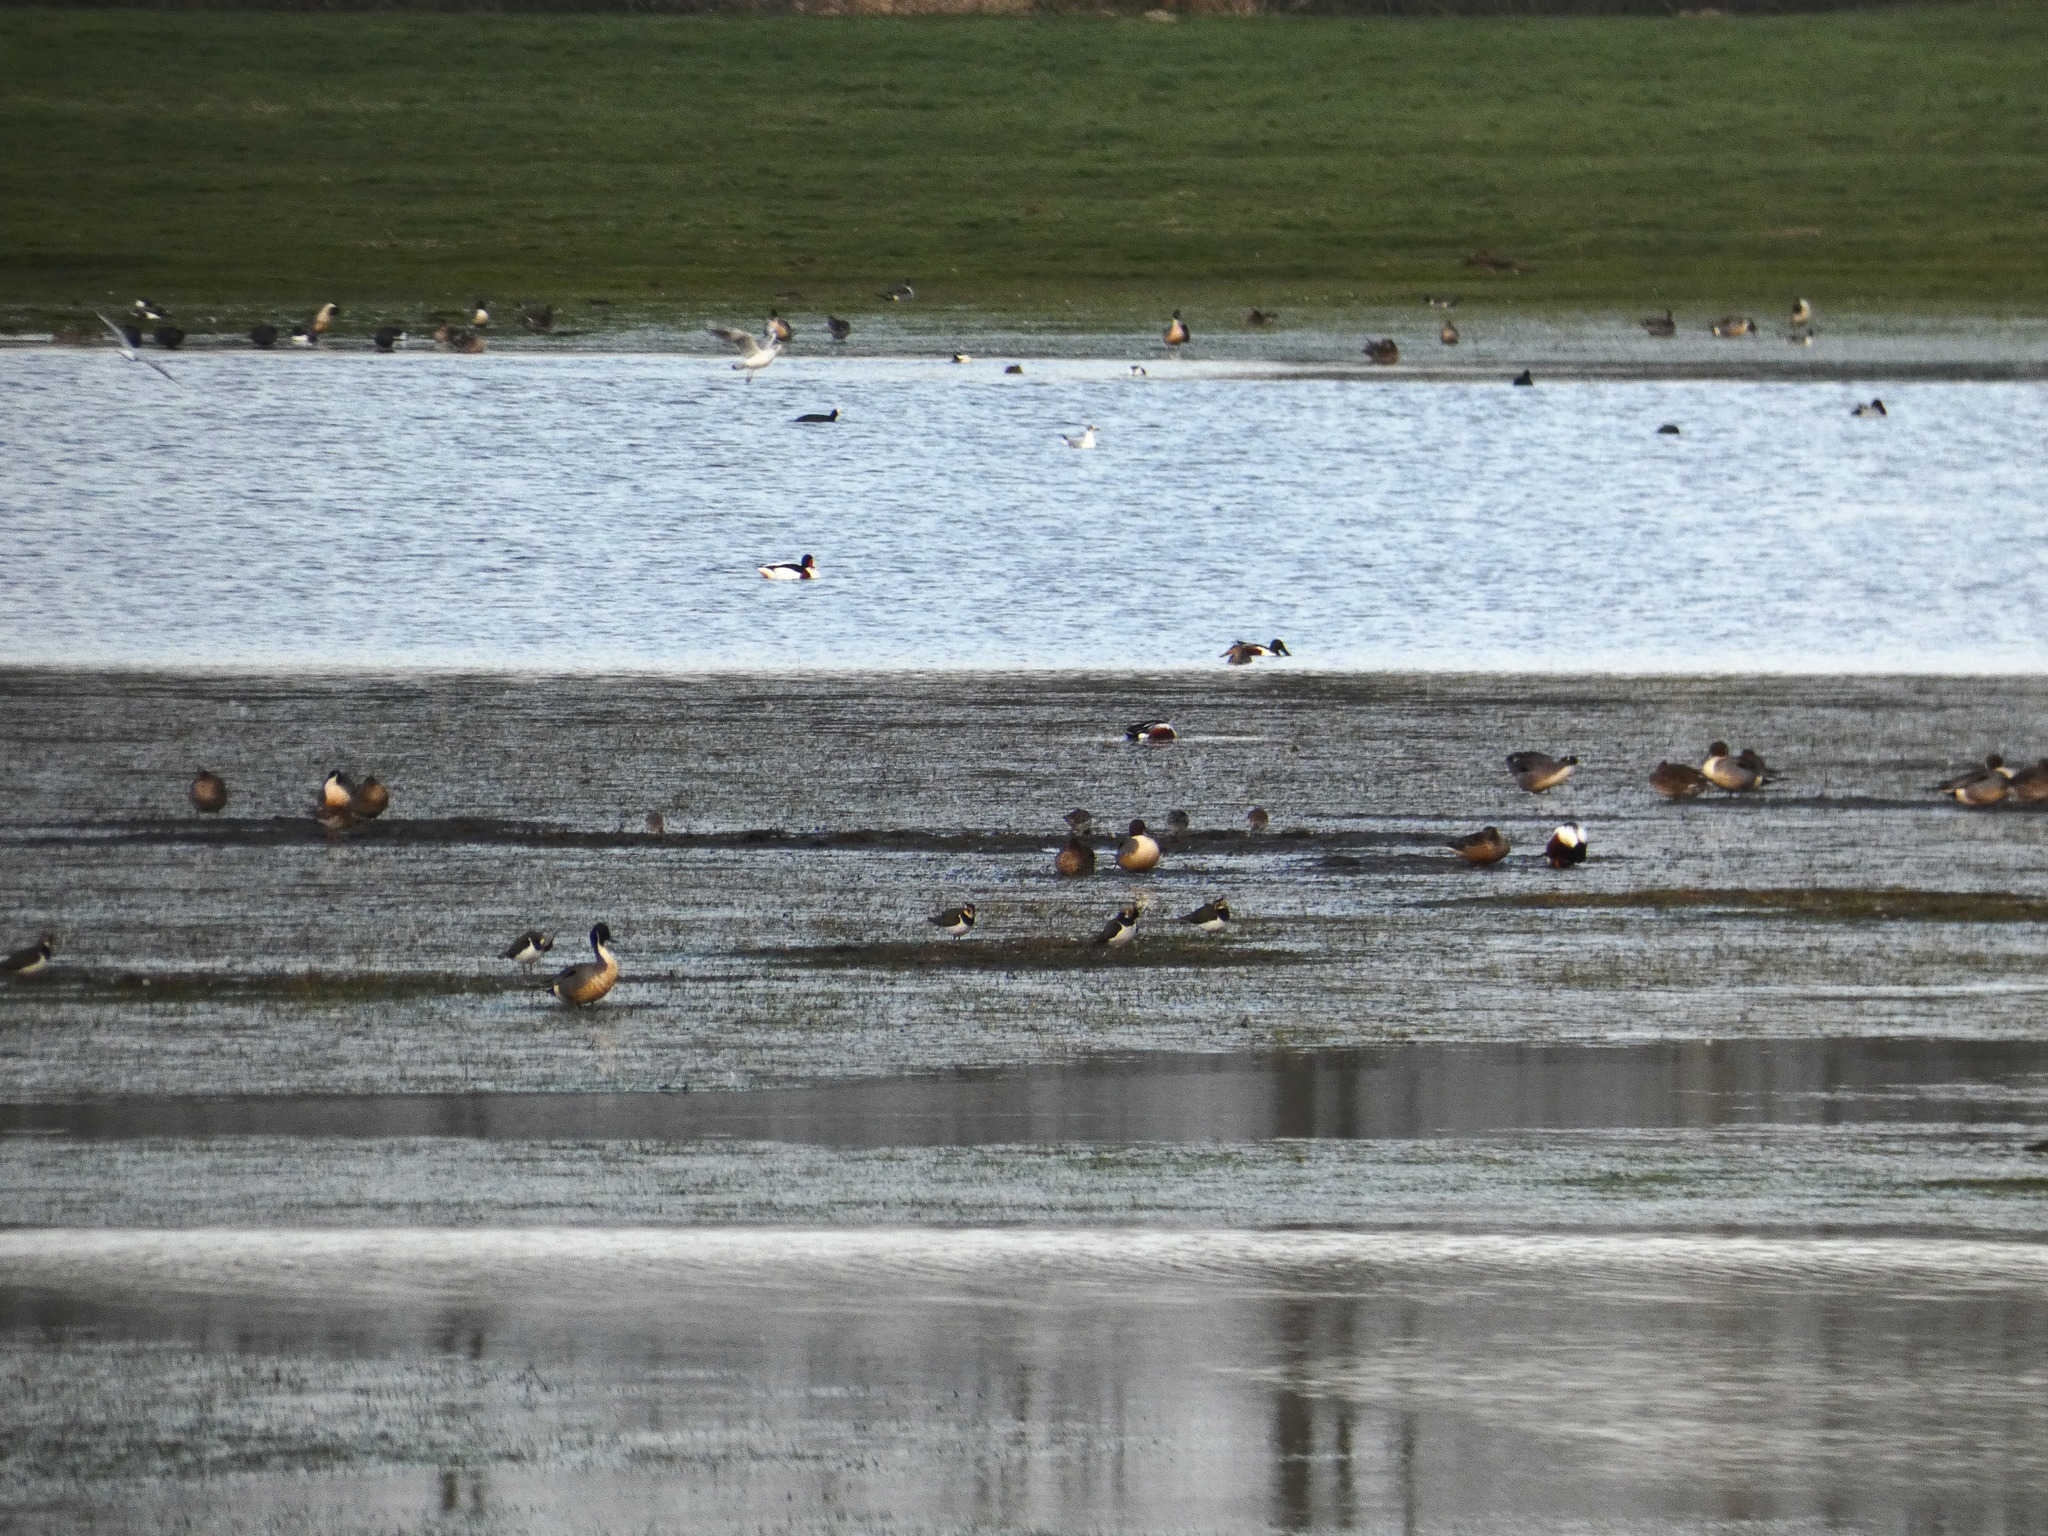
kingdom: Animalia
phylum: Chordata
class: Aves
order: Anseriformes
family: Anatidae
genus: Tadorna
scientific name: Tadorna tadorna
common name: Common shelduck
